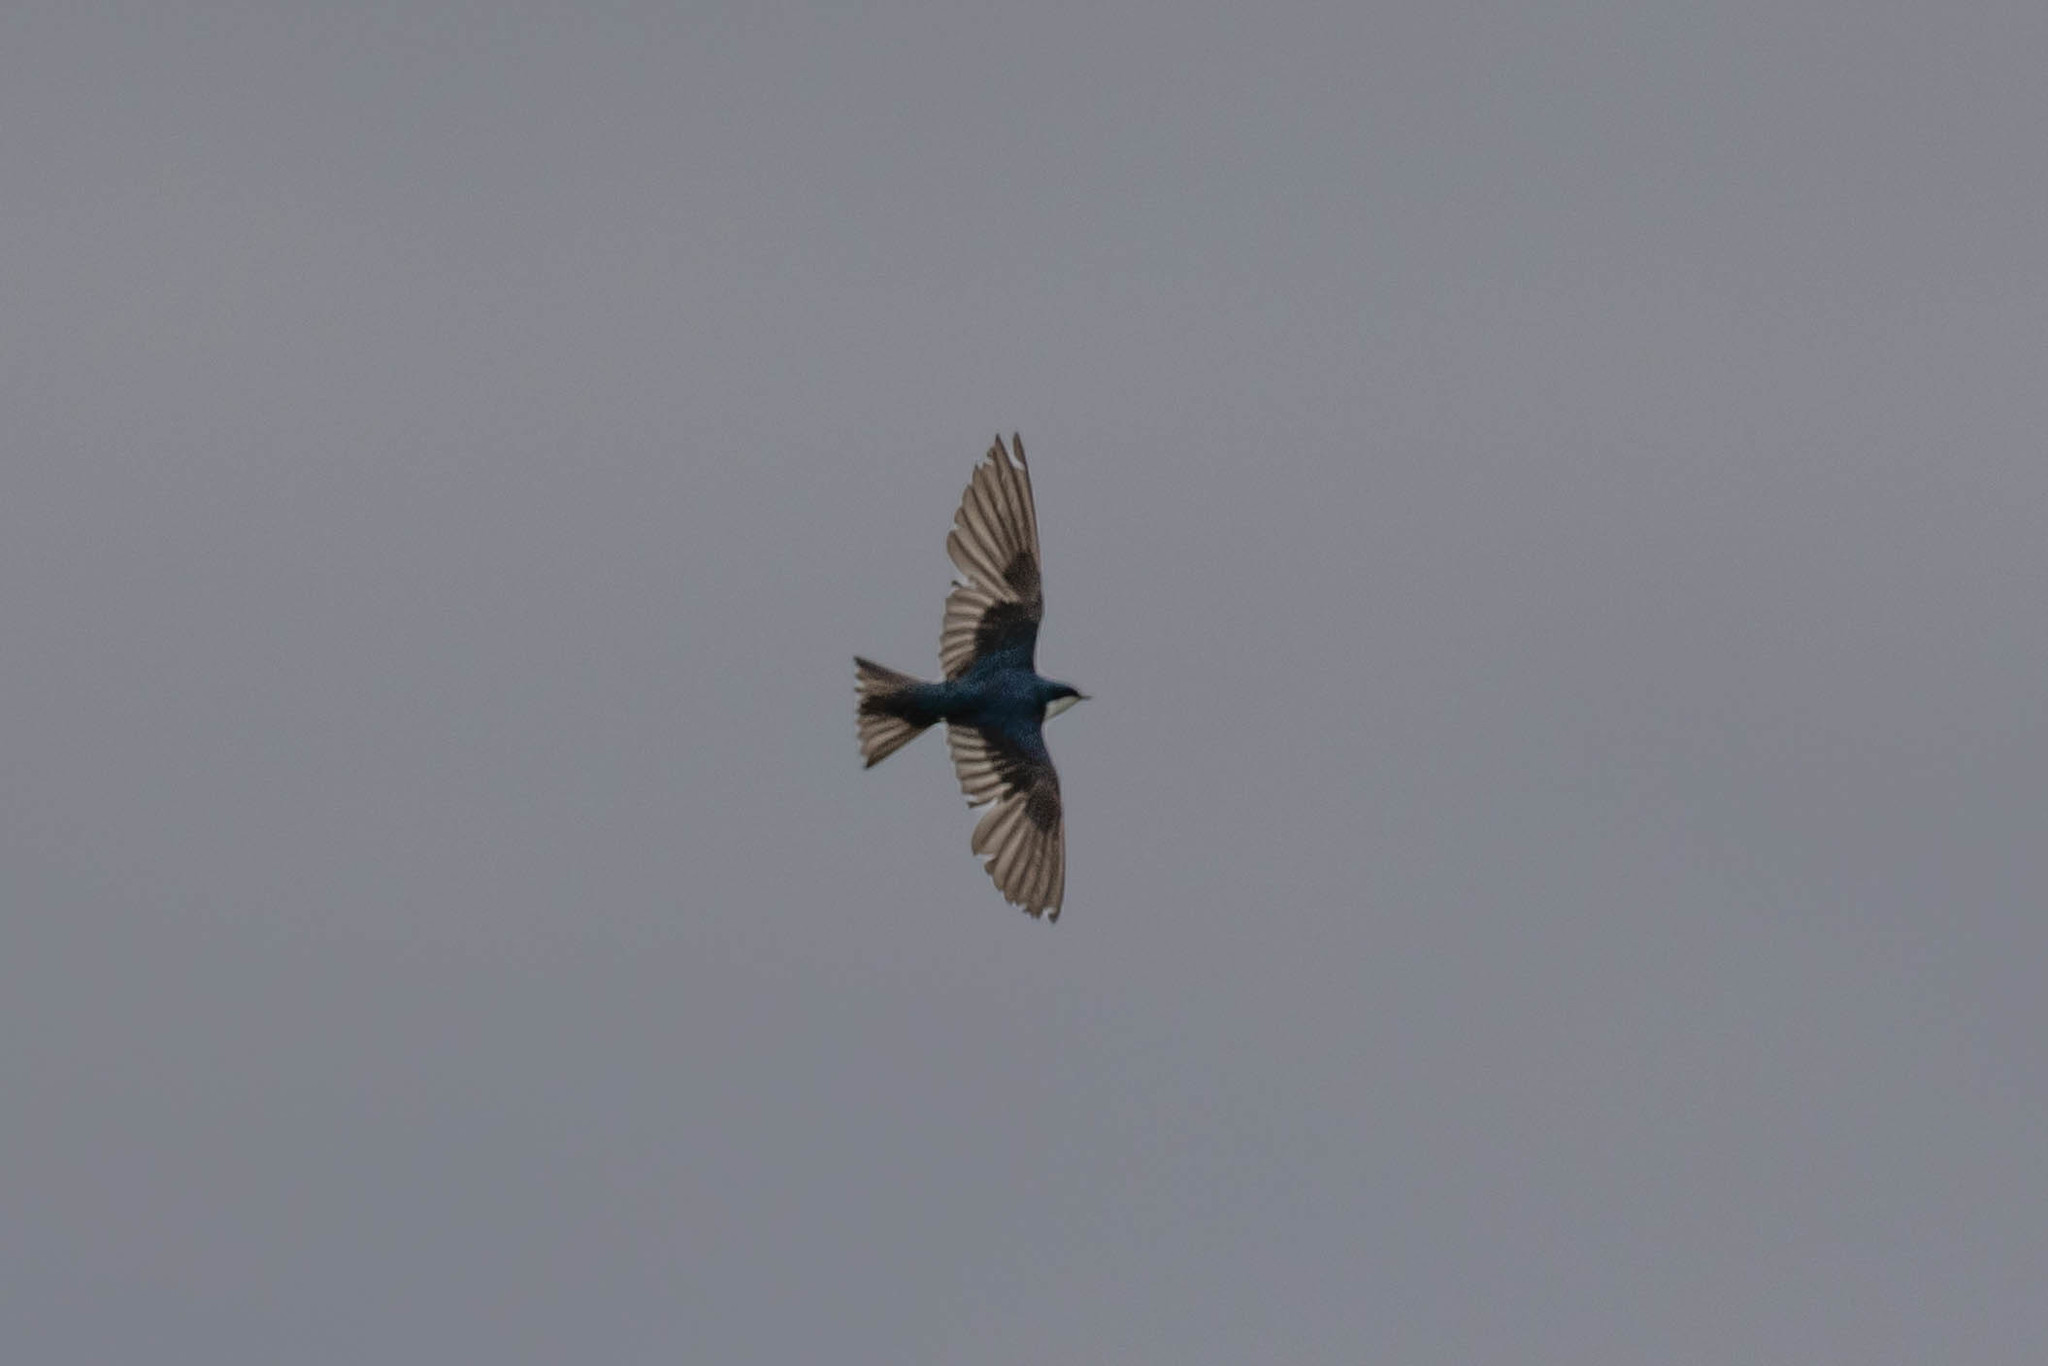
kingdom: Animalia
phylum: Chordata
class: Aves
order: Passeriformes
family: Hirundinidae
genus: Tachycineta
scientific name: Tachycineta bicolor
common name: Tree swallow
